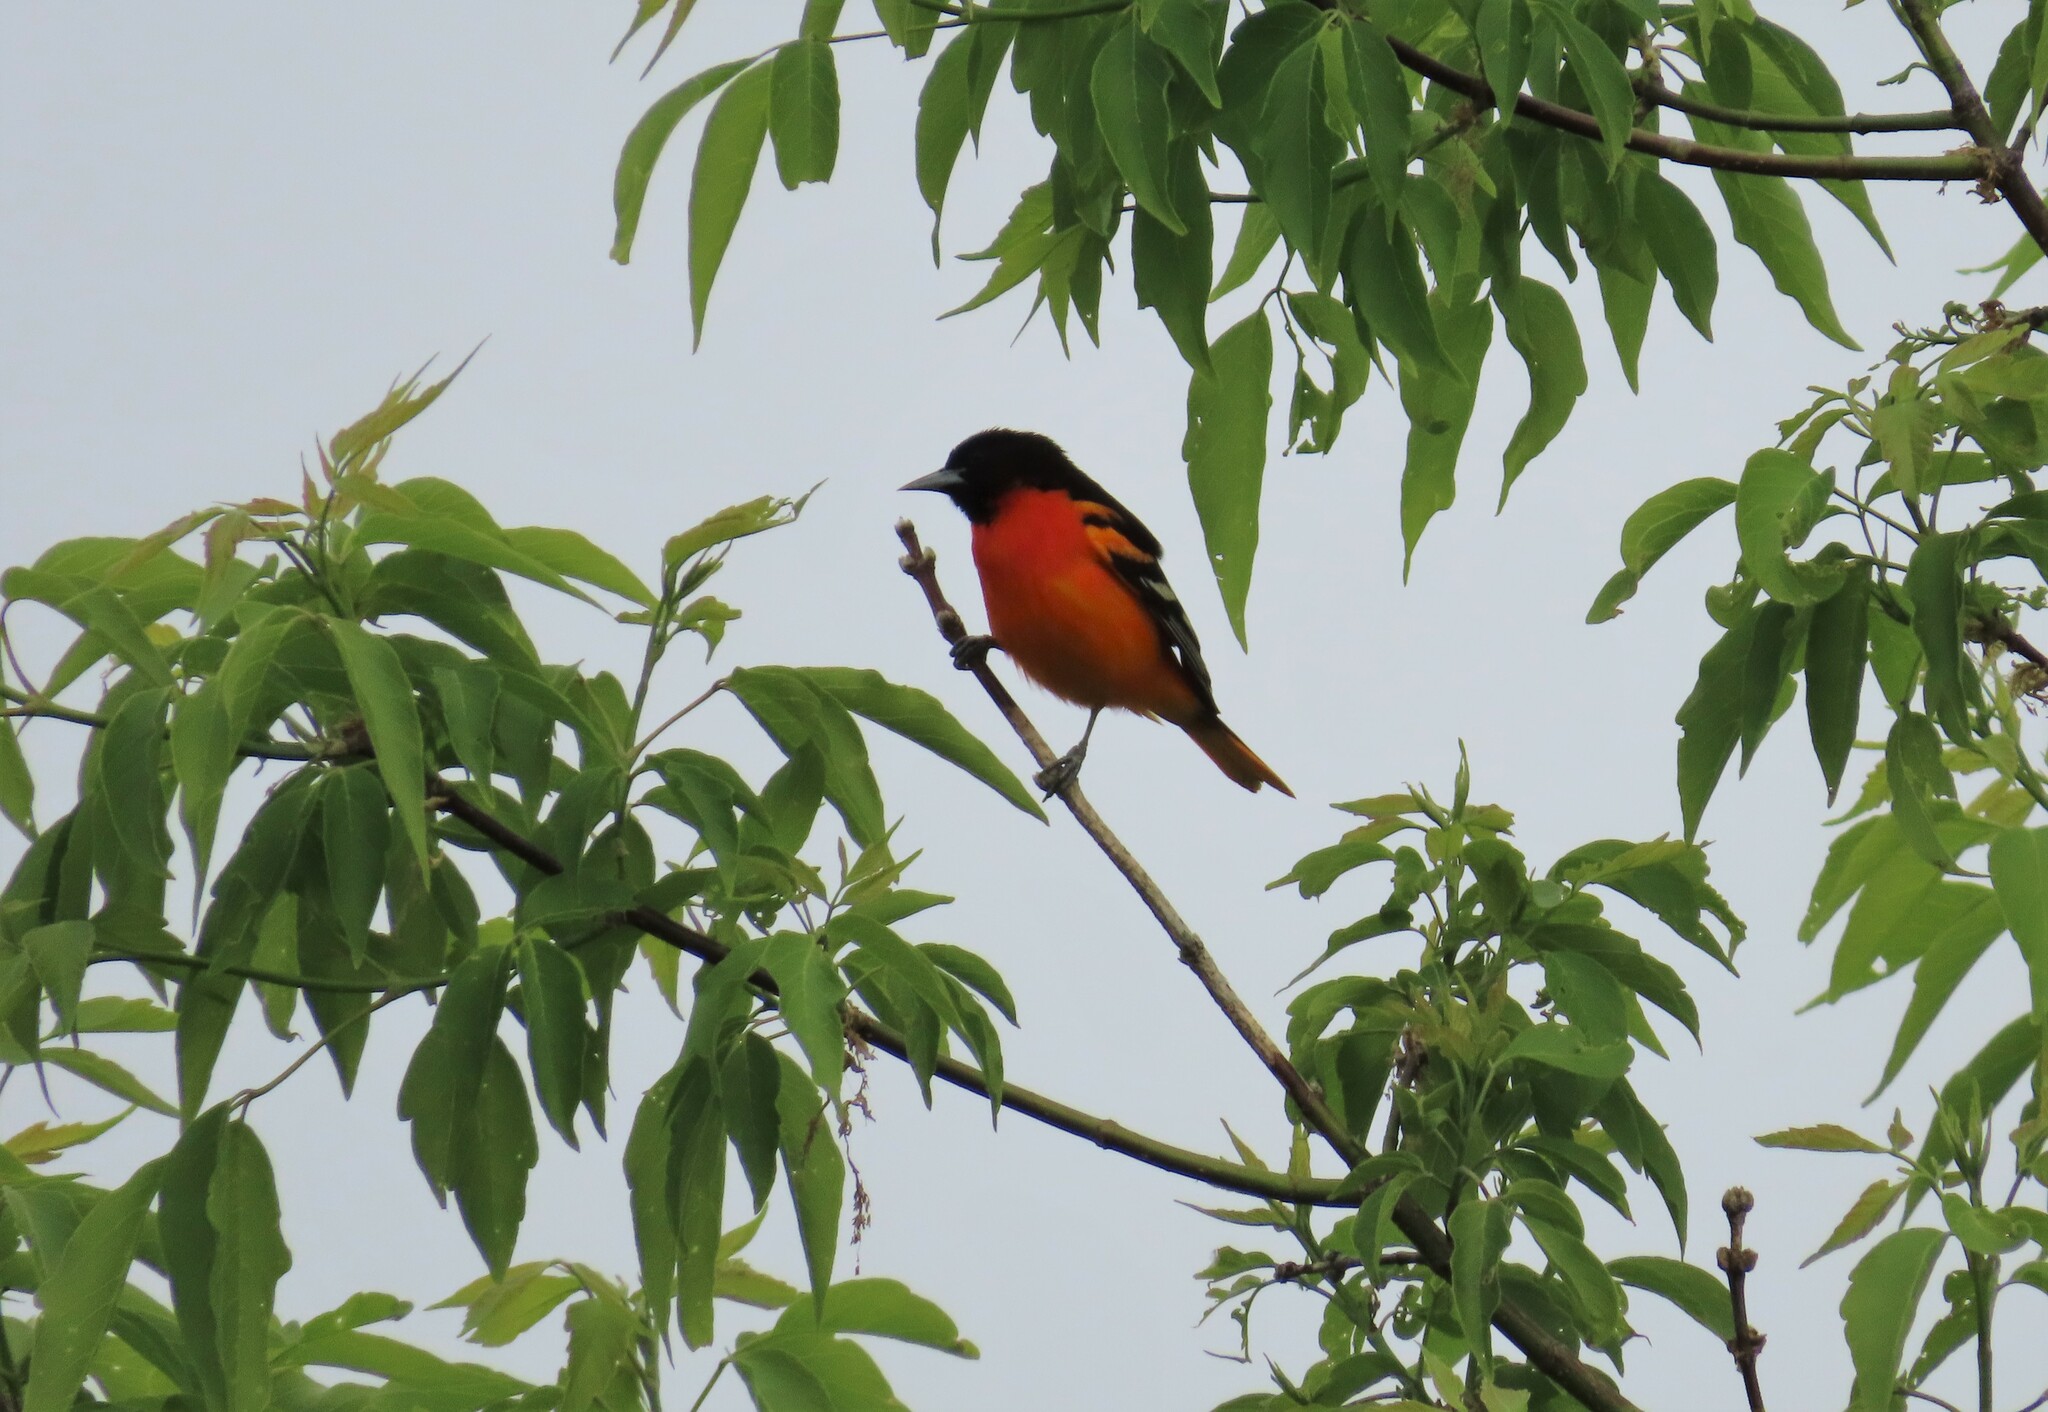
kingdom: Animalia
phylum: Chordata
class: Aves
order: Passeriformes
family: Icteridae
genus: Icterus
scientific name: Icterus galbula
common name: Baltimore oriole
